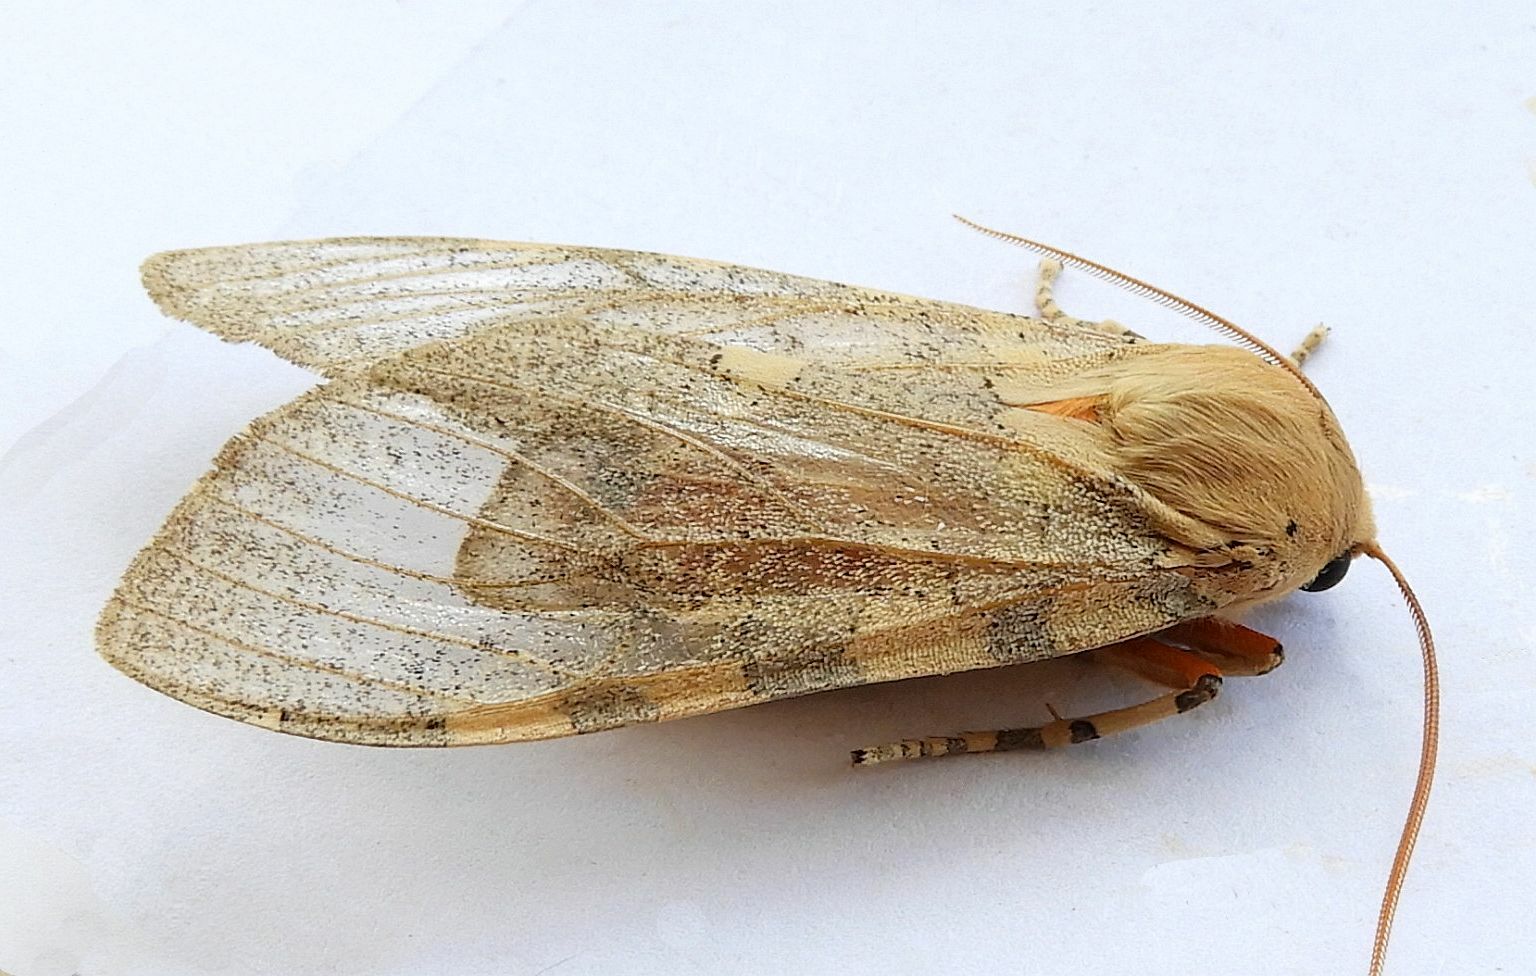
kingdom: Animalia
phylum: Arthropoda
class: Insecta
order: Lepidoptera
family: Erebidae
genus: Hemihyalea
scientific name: Hemihyalea edwardsii
